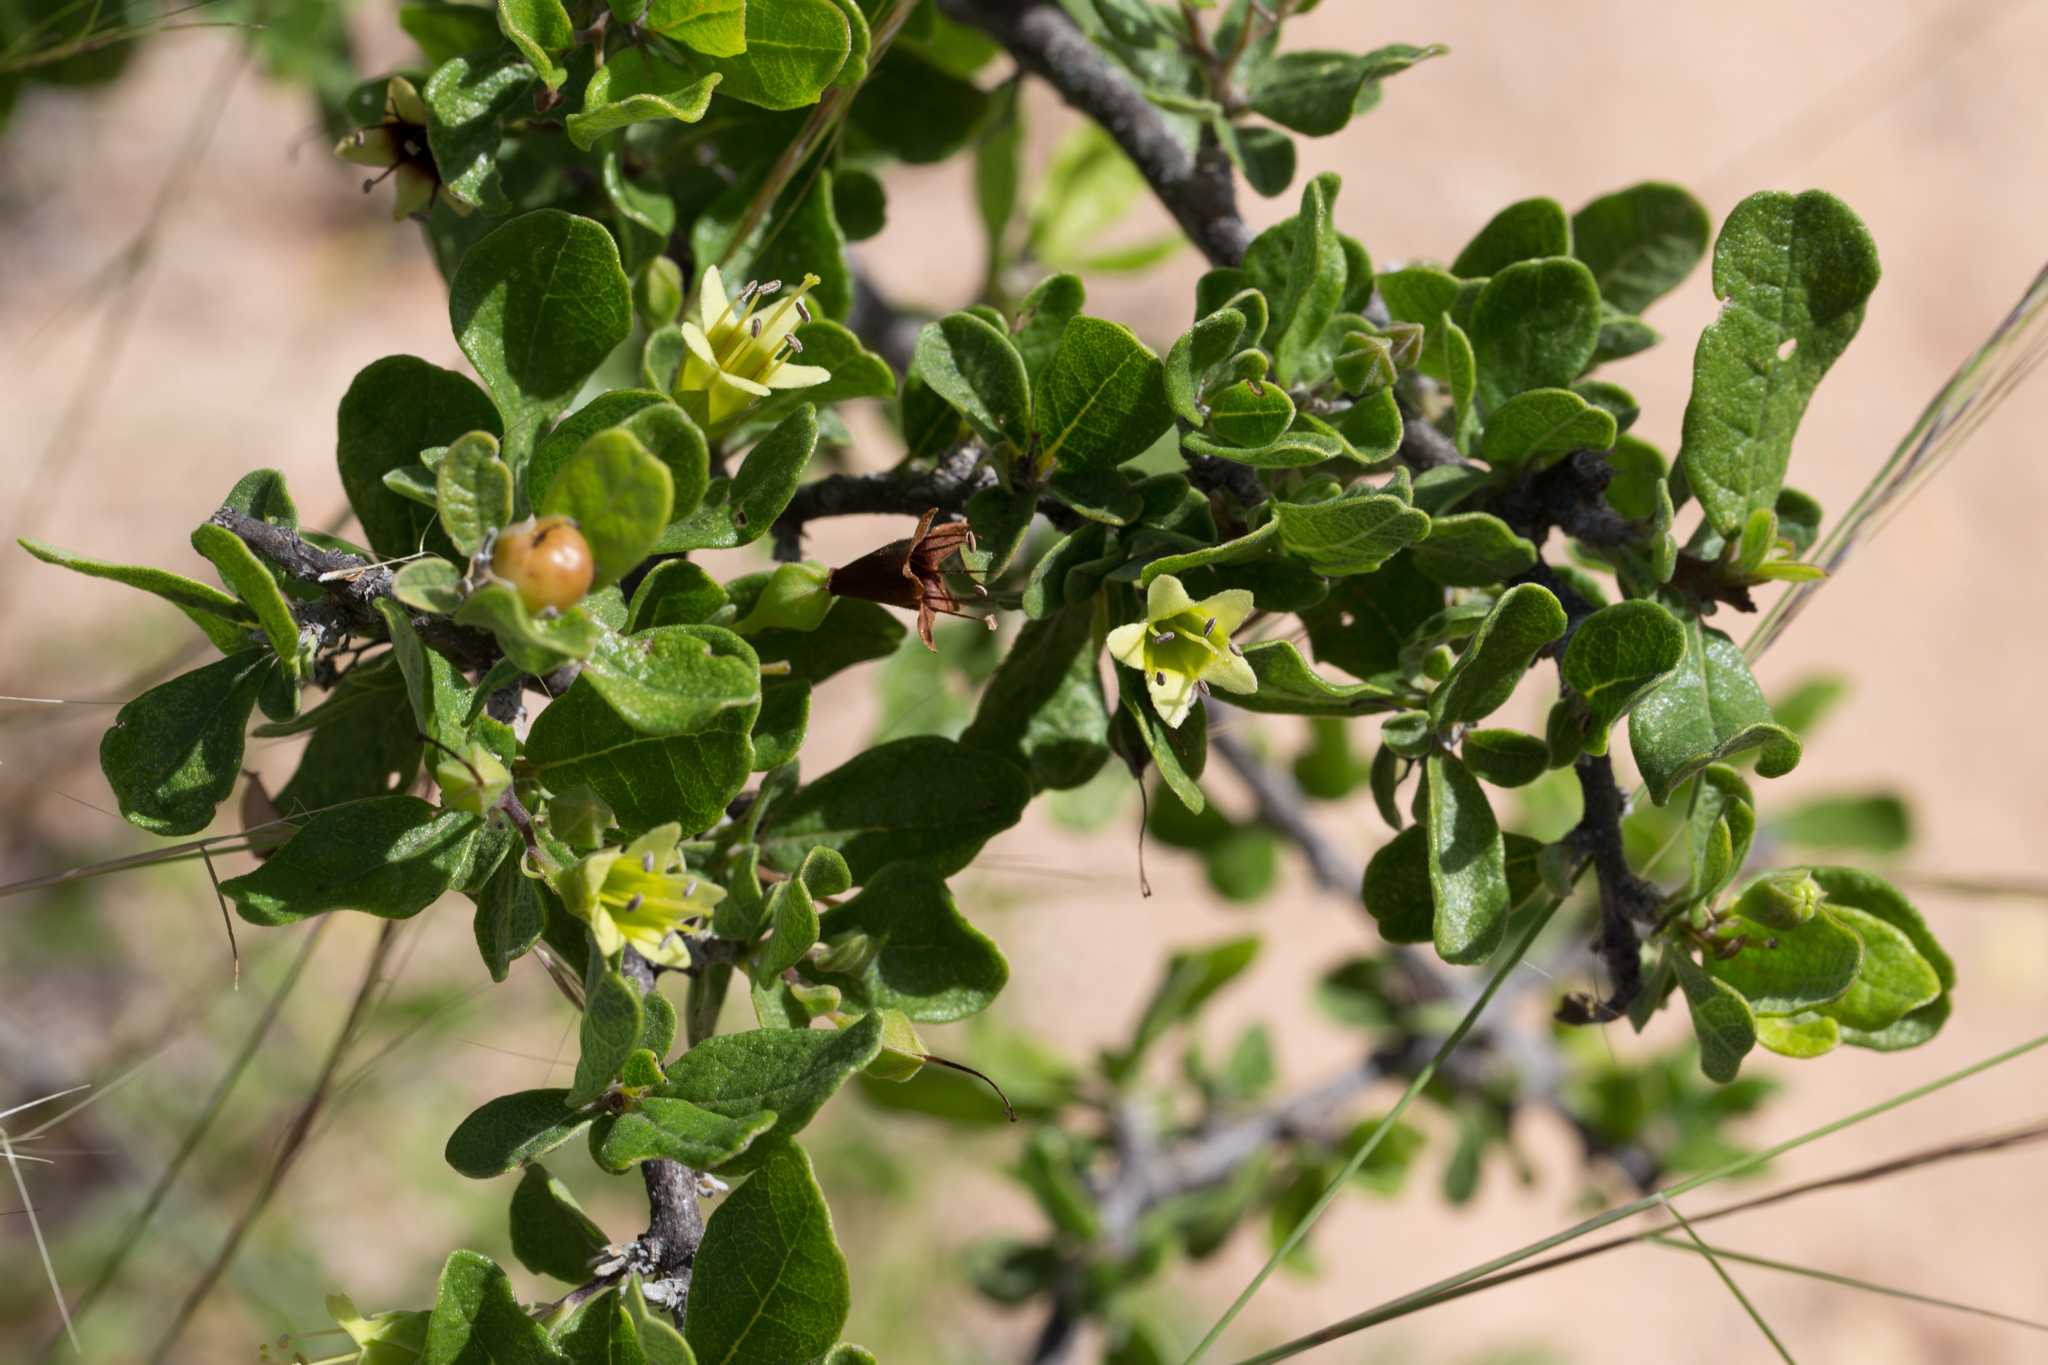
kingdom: Plantae
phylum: Tracheophyta
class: Magnoliopsida
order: Boraginales
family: Ehretiaceae
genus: Bourreria
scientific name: Bourreria sonorae
